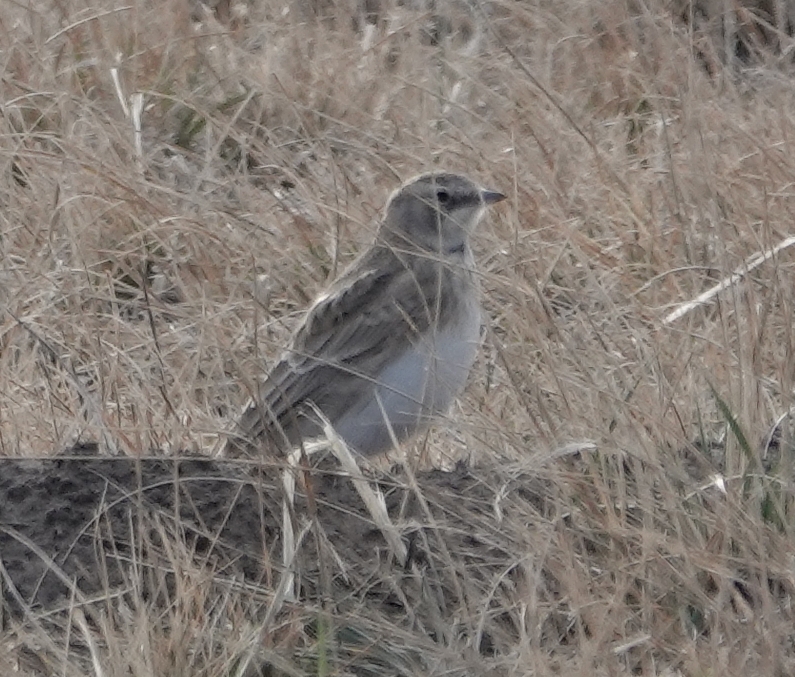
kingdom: Animalia
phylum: Chordata
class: Aves
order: Passeriformes
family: Alaudidae
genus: Eremophila
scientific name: Eremophila alpestris
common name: Horned lark
